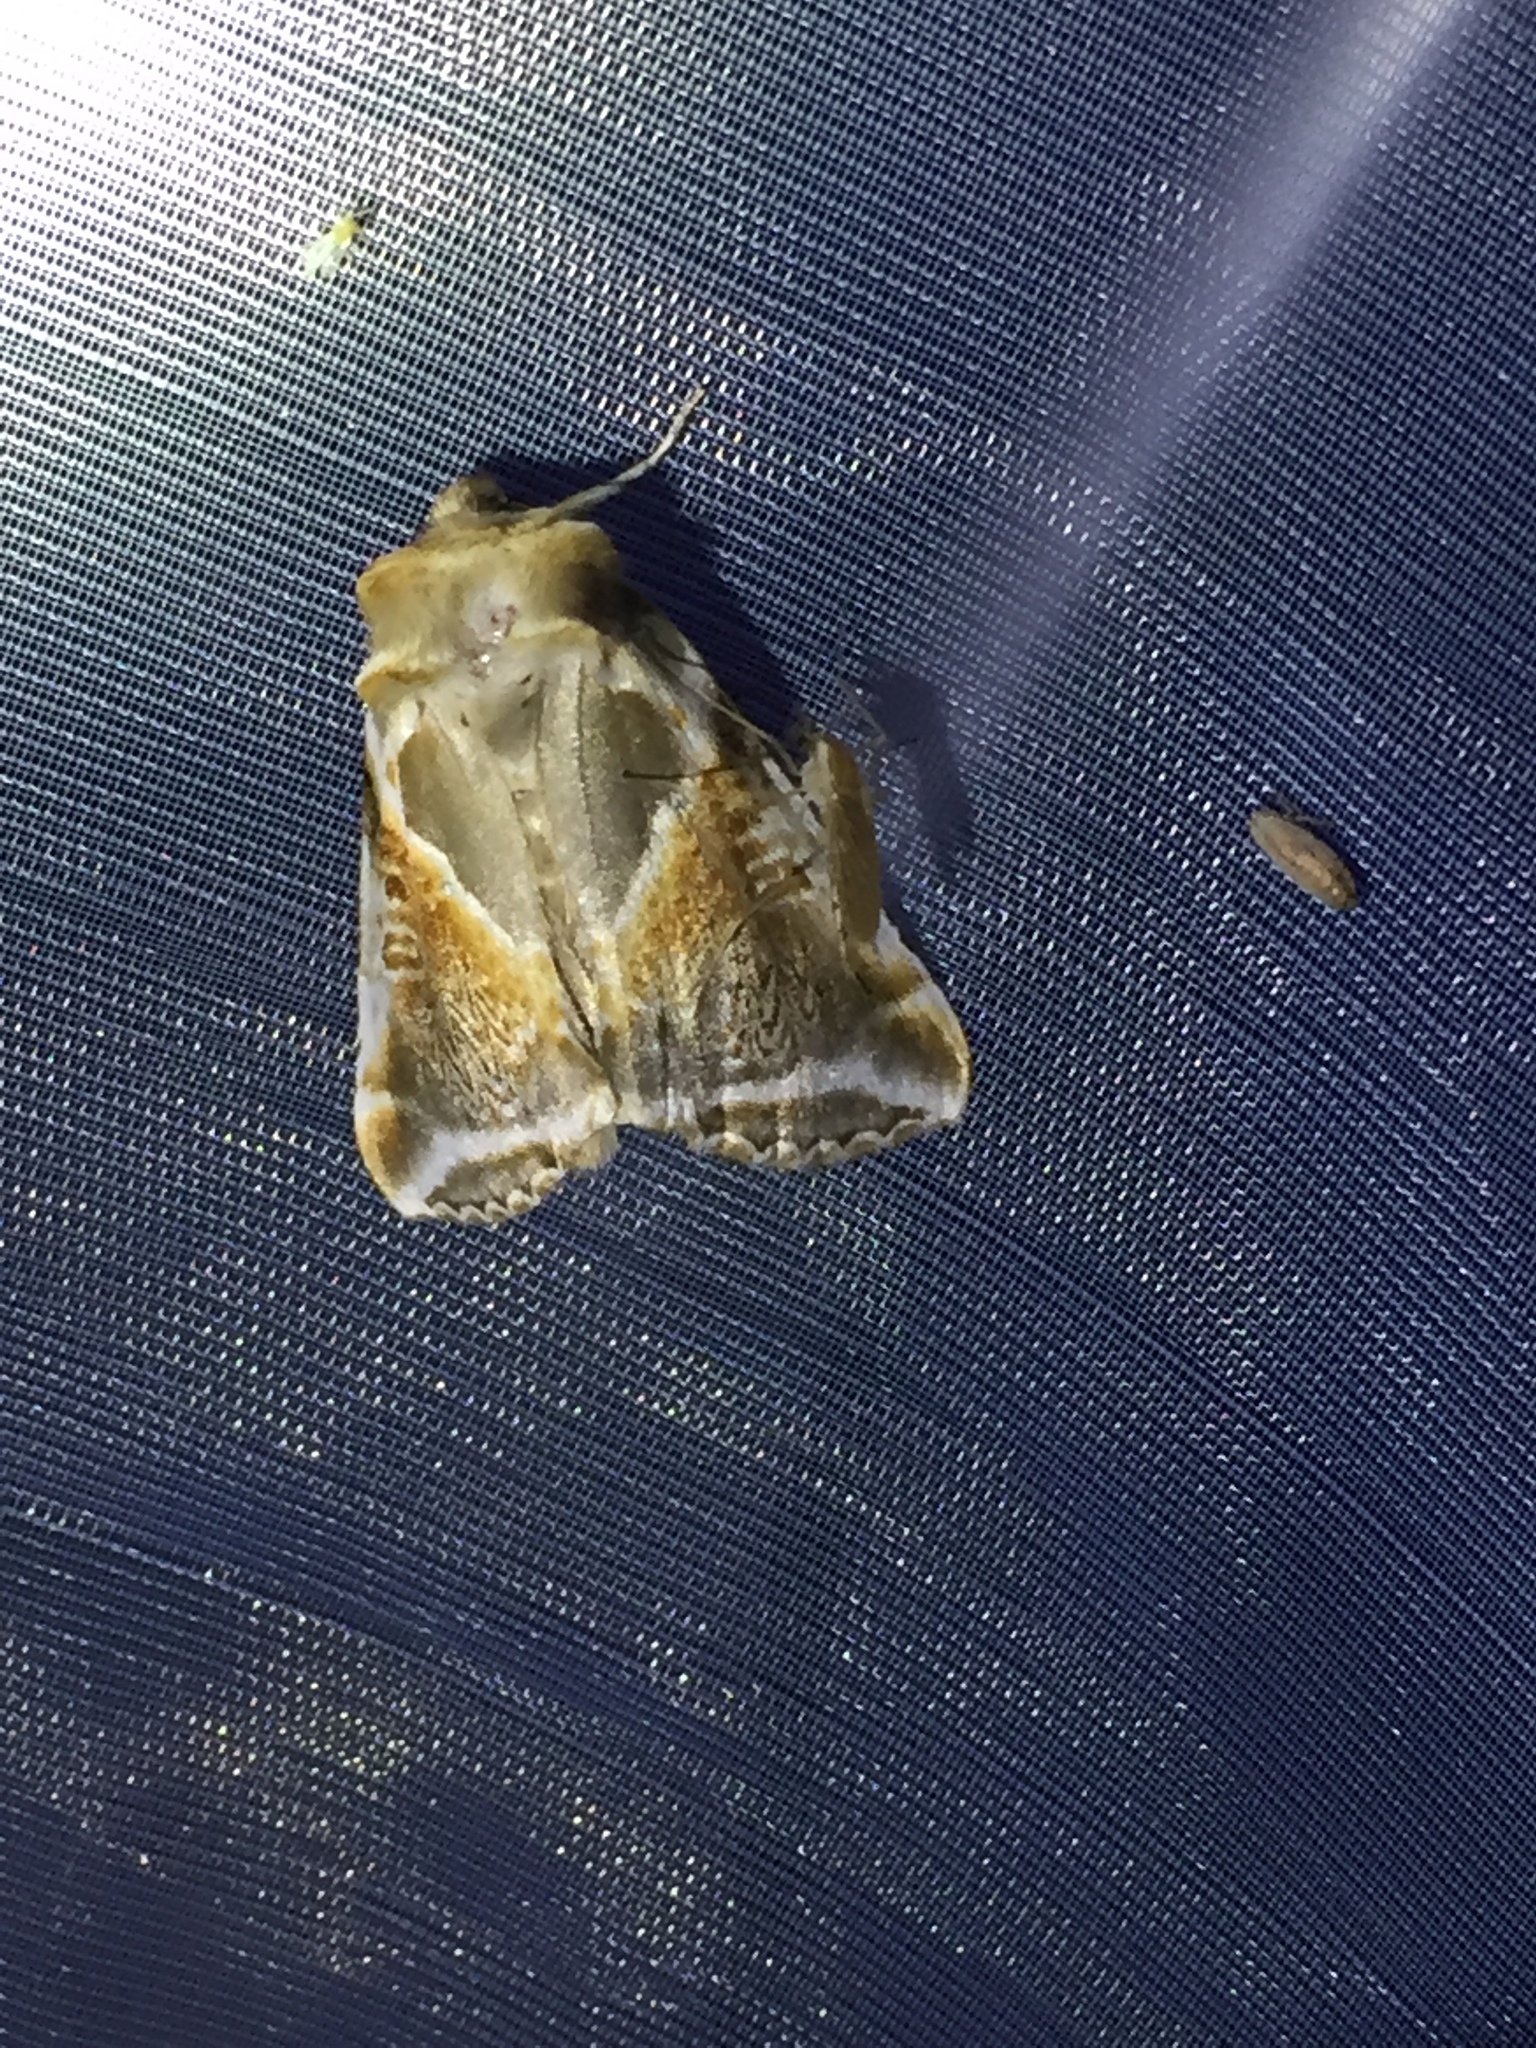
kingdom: Animalia
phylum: Arthropoda
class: Insecta
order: Lepidoptera
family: Drepanidae
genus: Habrosyne
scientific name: Habrosyne pyritoides
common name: Buff arches
